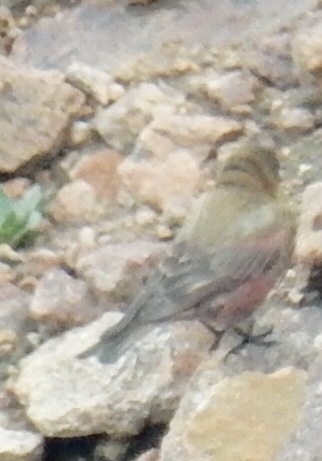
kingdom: Animalia
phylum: Chordata
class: Aves
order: Passeriformes
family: Fringillidae
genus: Leucosticte
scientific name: Leucosticte australis
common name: Brown-capped rosy-finch
